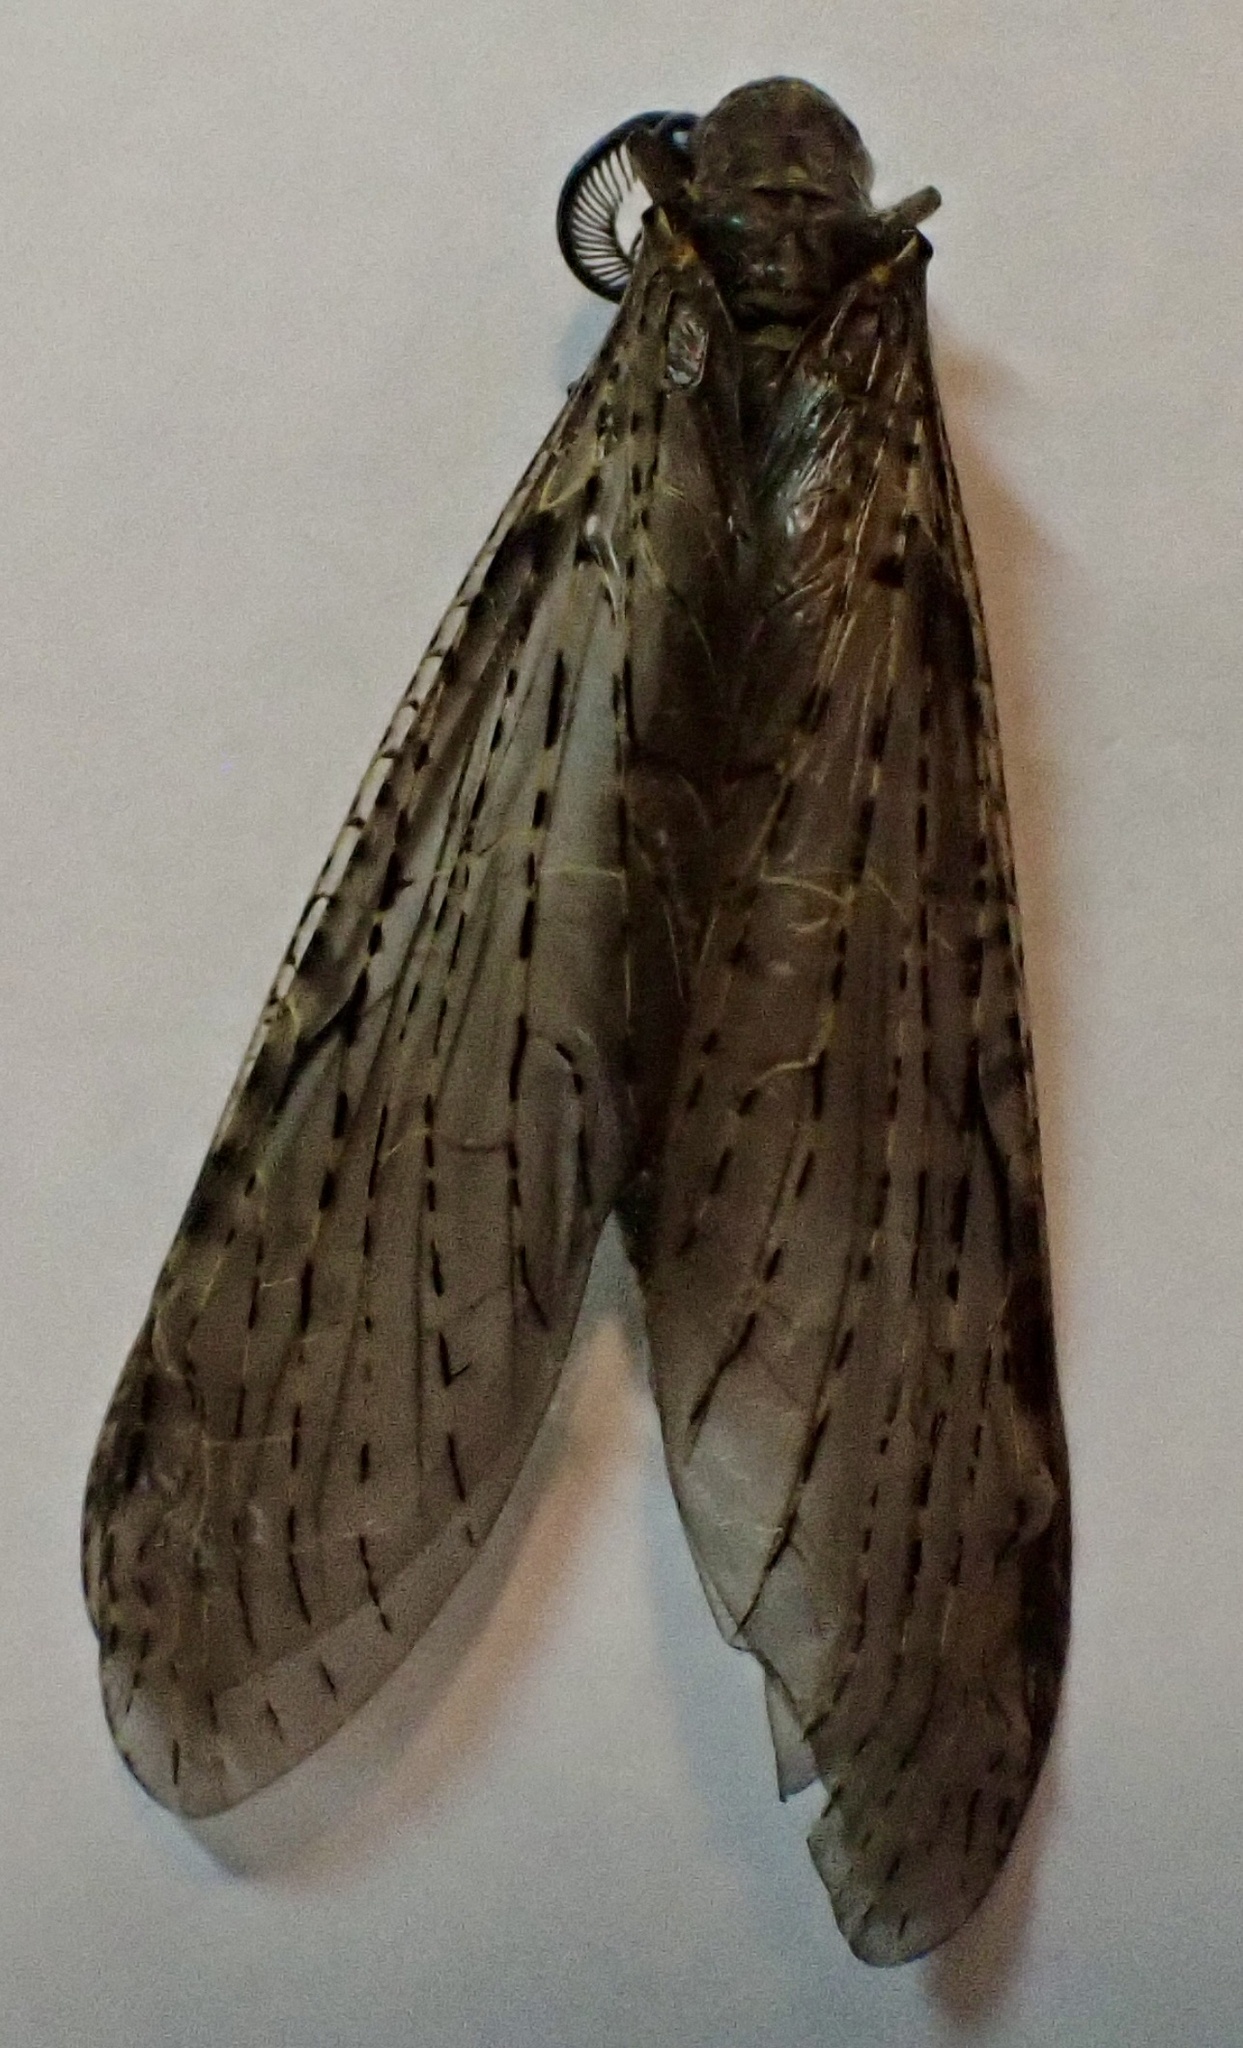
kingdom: Animalia
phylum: Arthropoda
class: Insecta
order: Megaloptera
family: Corydalidae
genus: Chauliodes
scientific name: Chauliodes rastricornis
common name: Spring fishfly
